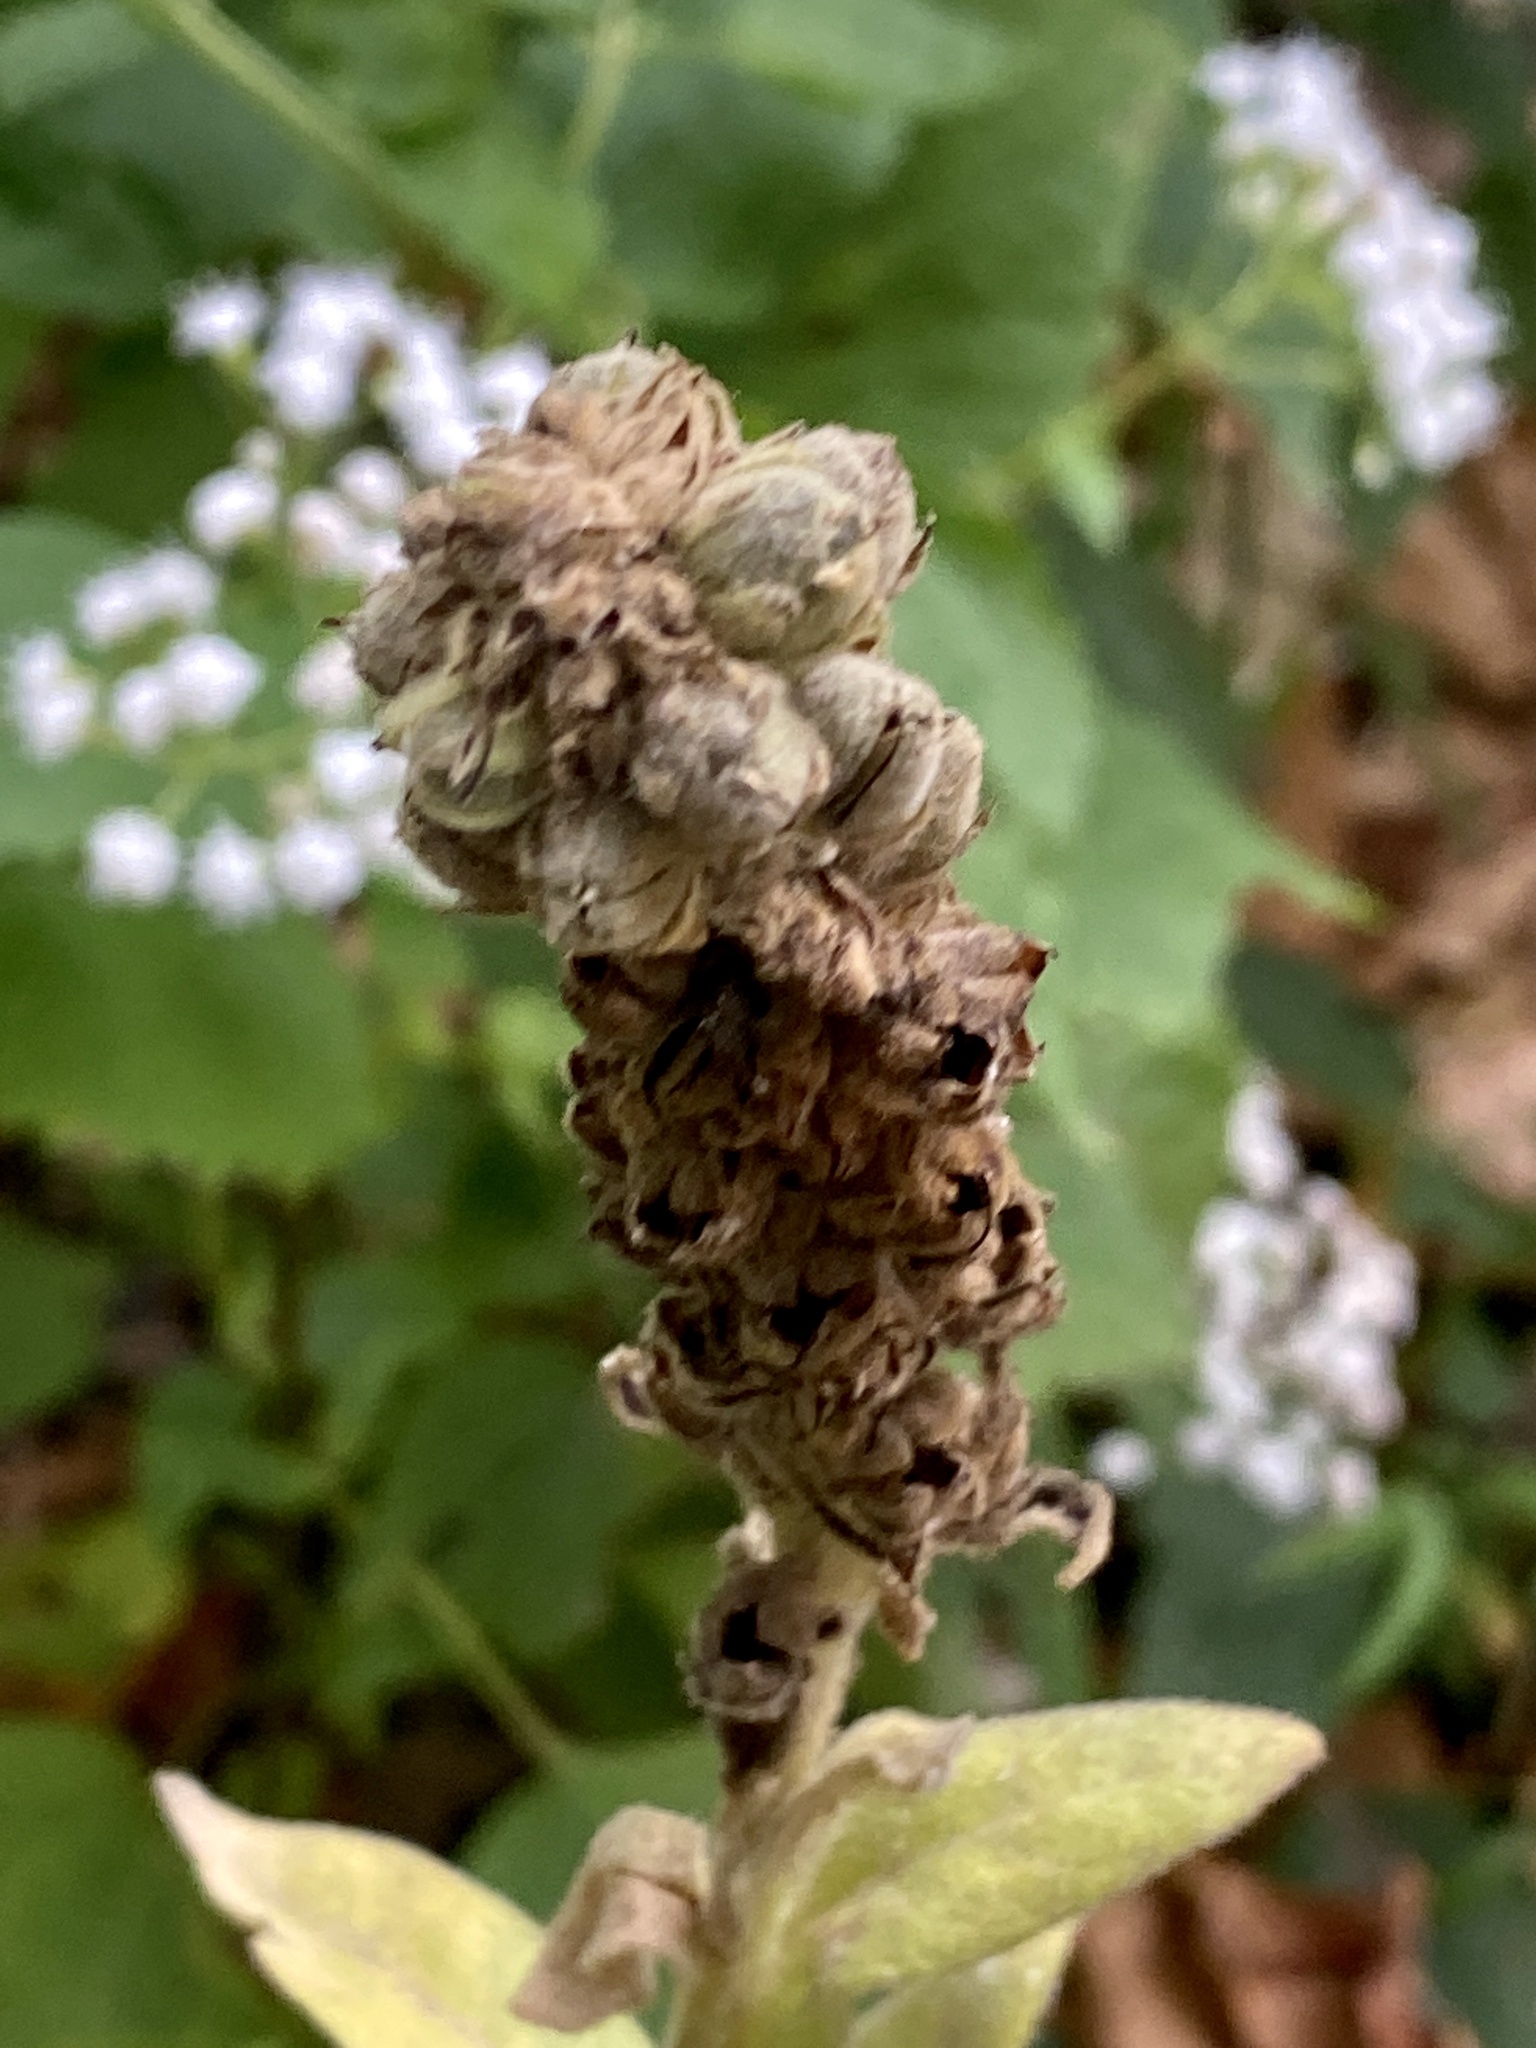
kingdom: Plantae
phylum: Tracheophyta
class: Magnoliopsida
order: Lamiales
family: Scrophulariaceae
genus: Verbascum
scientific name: Verbascum thapsus
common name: Common mullein
